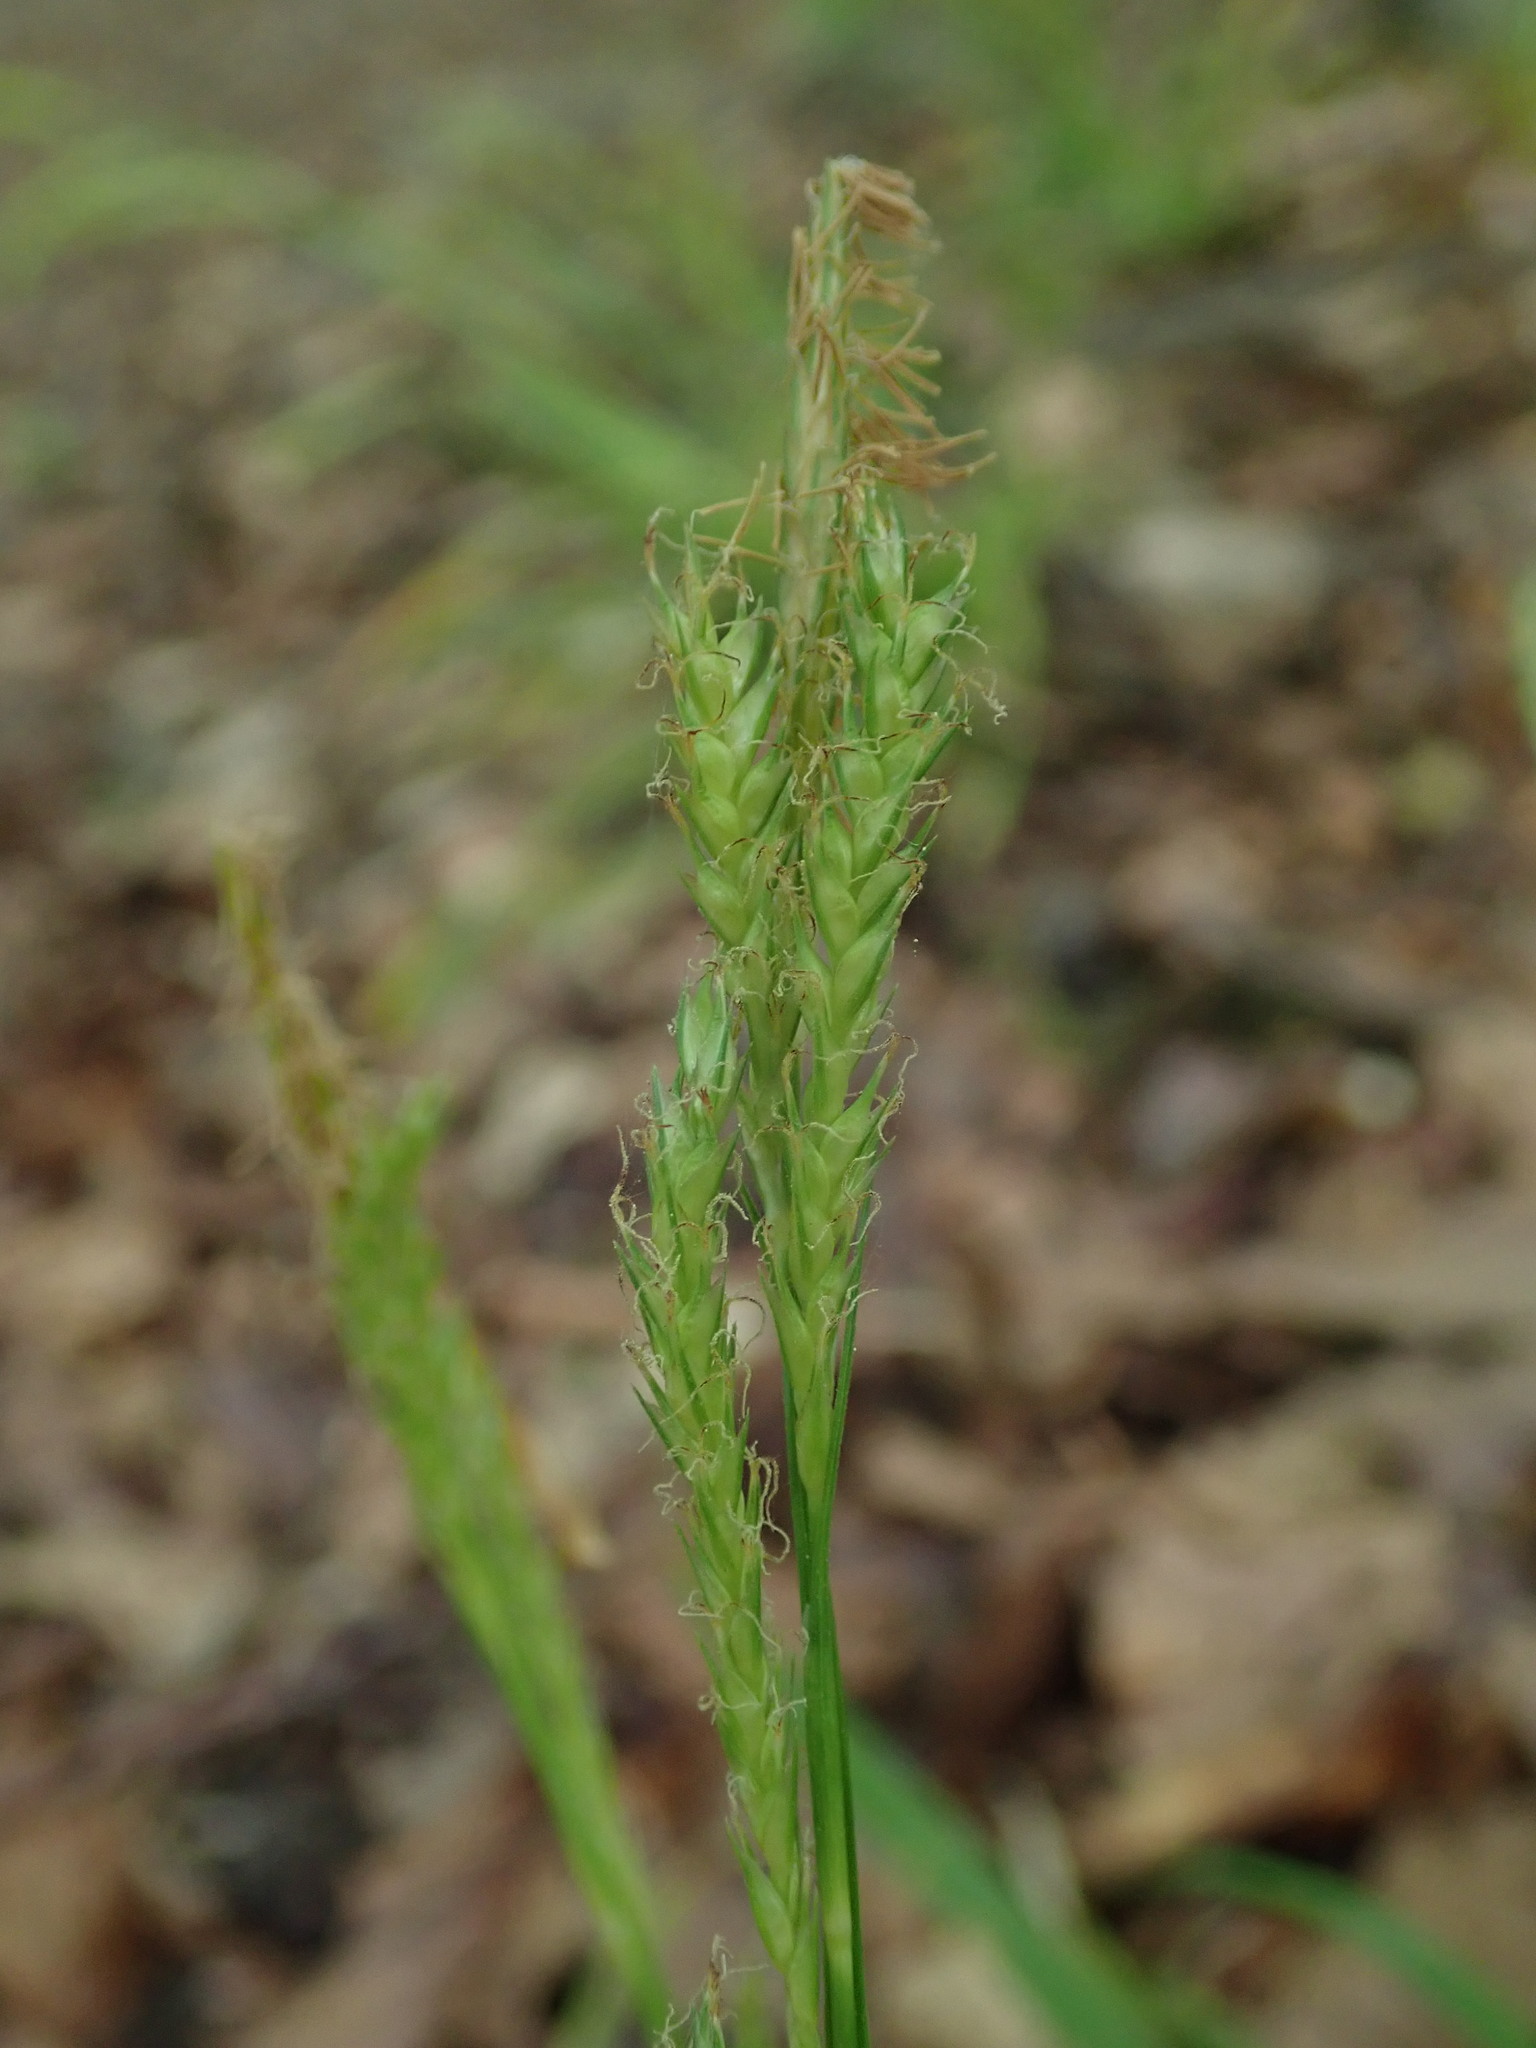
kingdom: Plantae
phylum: Tracheophyta
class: Liliopsida
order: Poales
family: Cyperaceae
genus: Carex
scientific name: Carex sylvatica
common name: Wood-sedge
